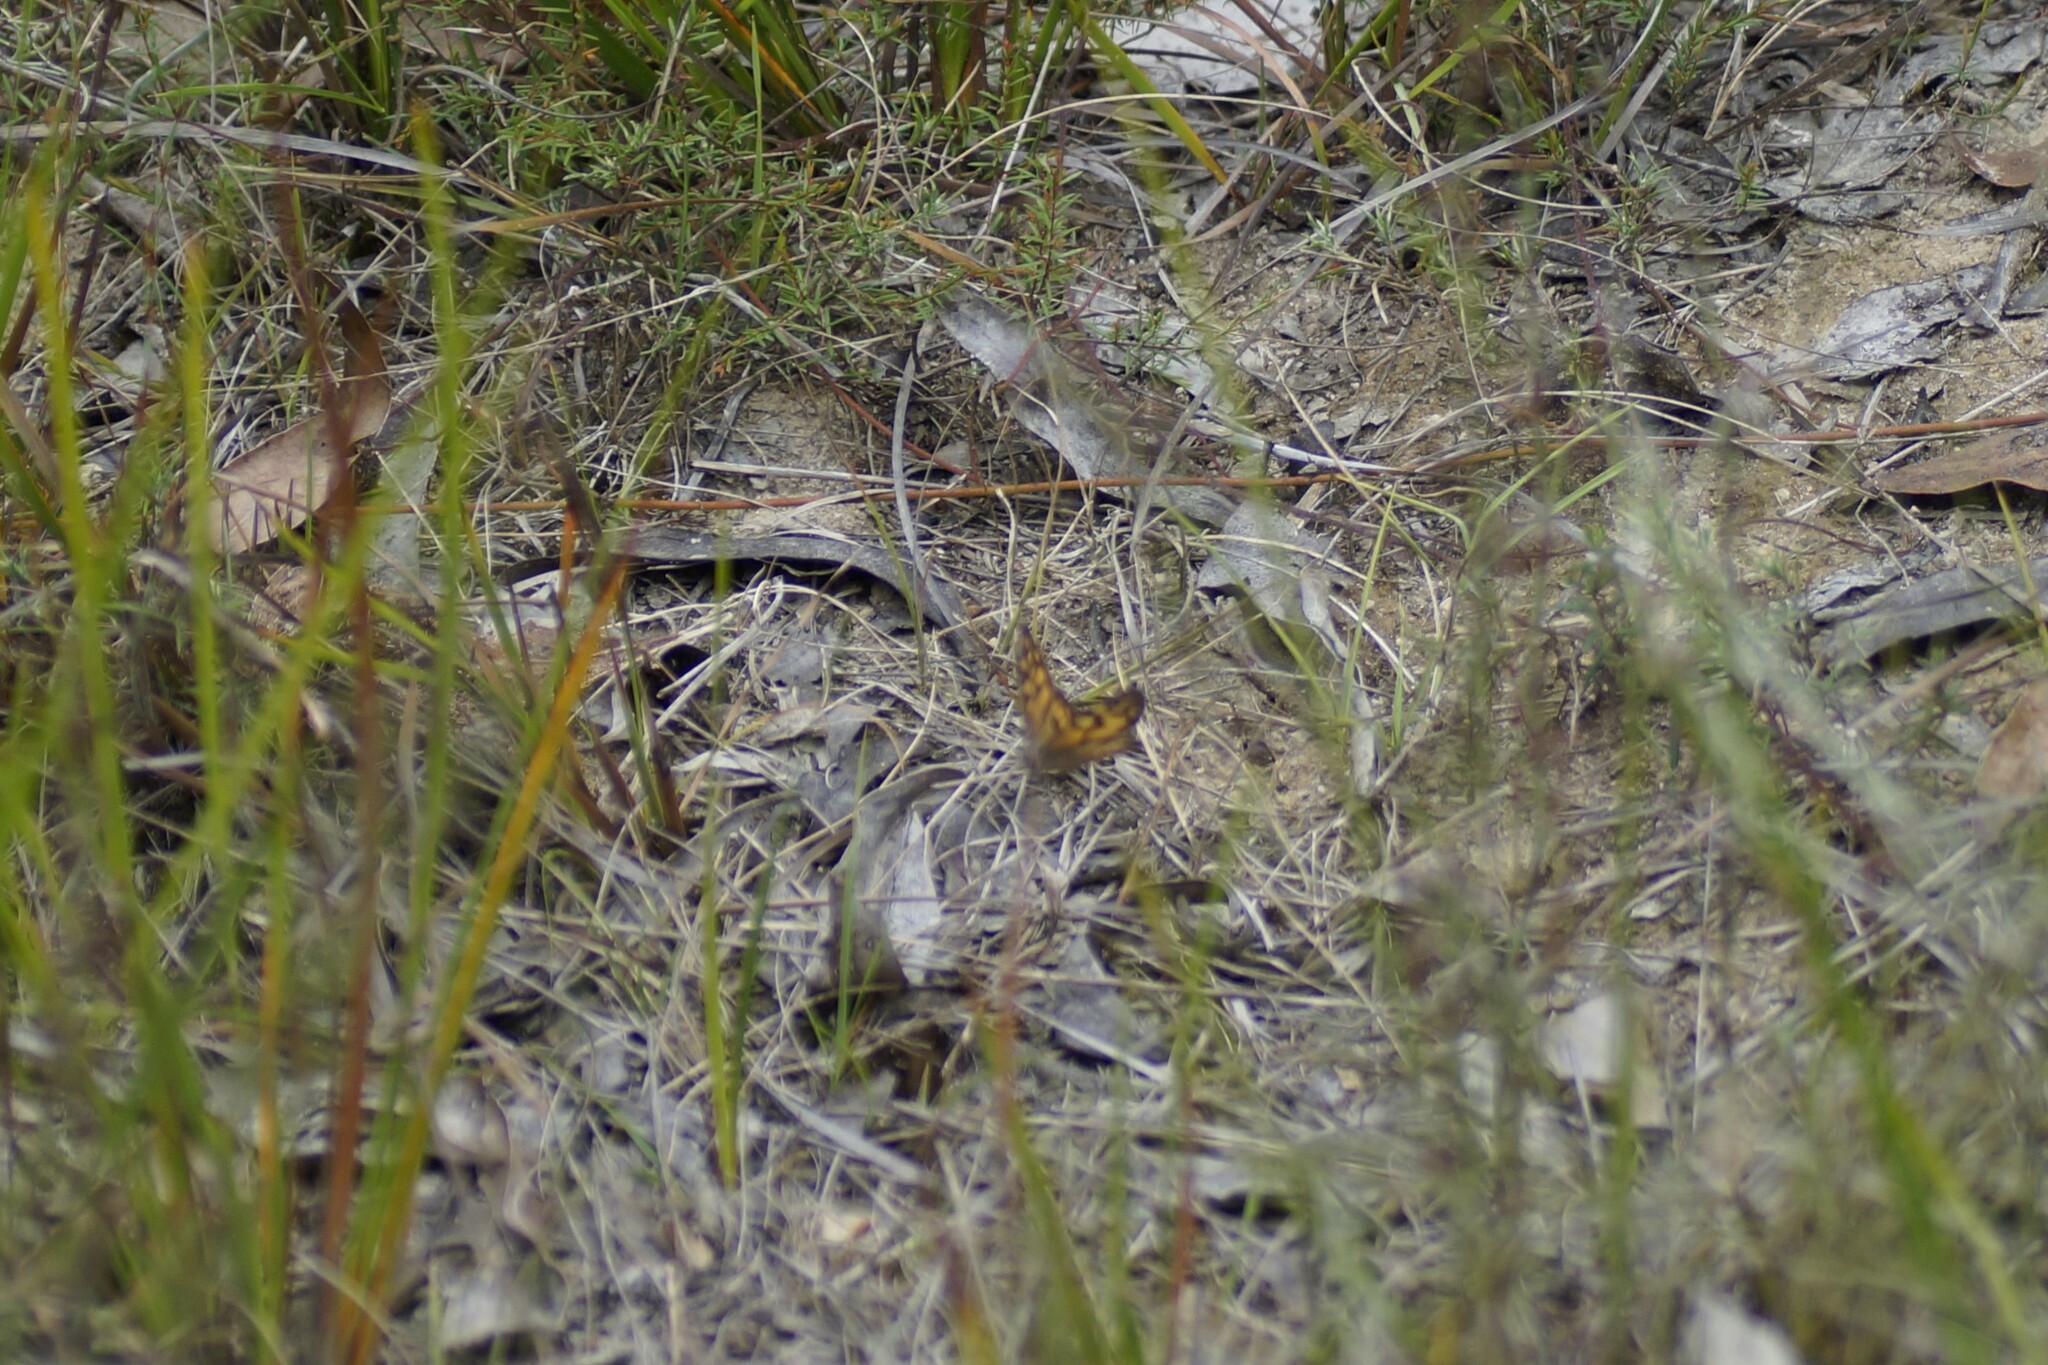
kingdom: Animalia
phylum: Arthropoda
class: Insecta
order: Lepidoptera
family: Nymphalidae
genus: Geitoneura
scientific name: Geitoneura klugii
